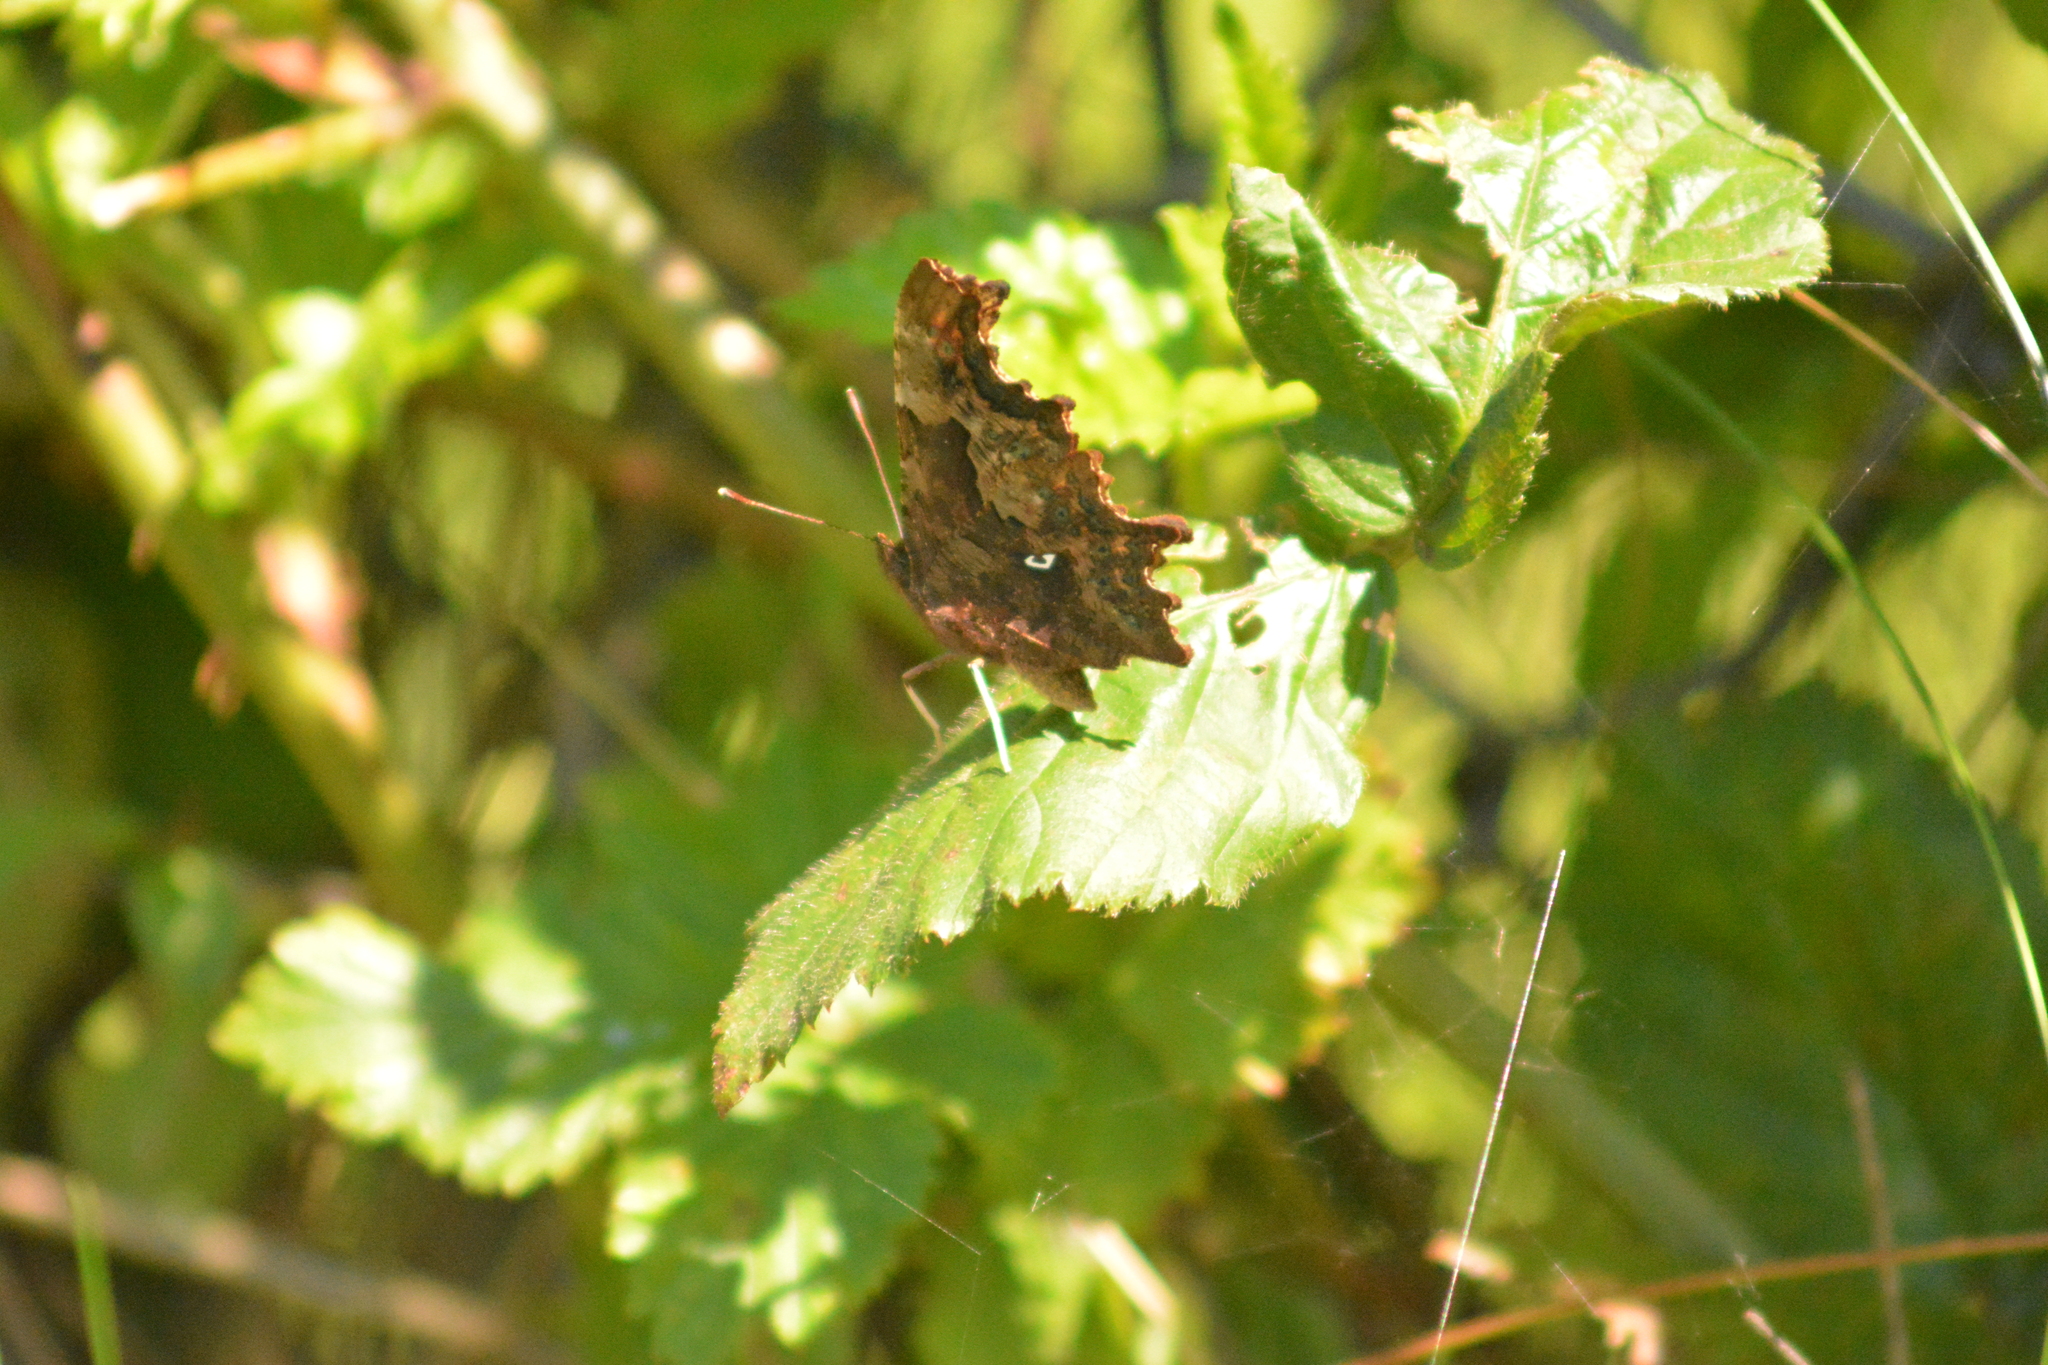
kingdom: Animalia
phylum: Arthropoda
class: Insecta
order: Lepidoptera
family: Nymphalidae
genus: Polygonia
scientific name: Polygonia c-album
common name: Comma
